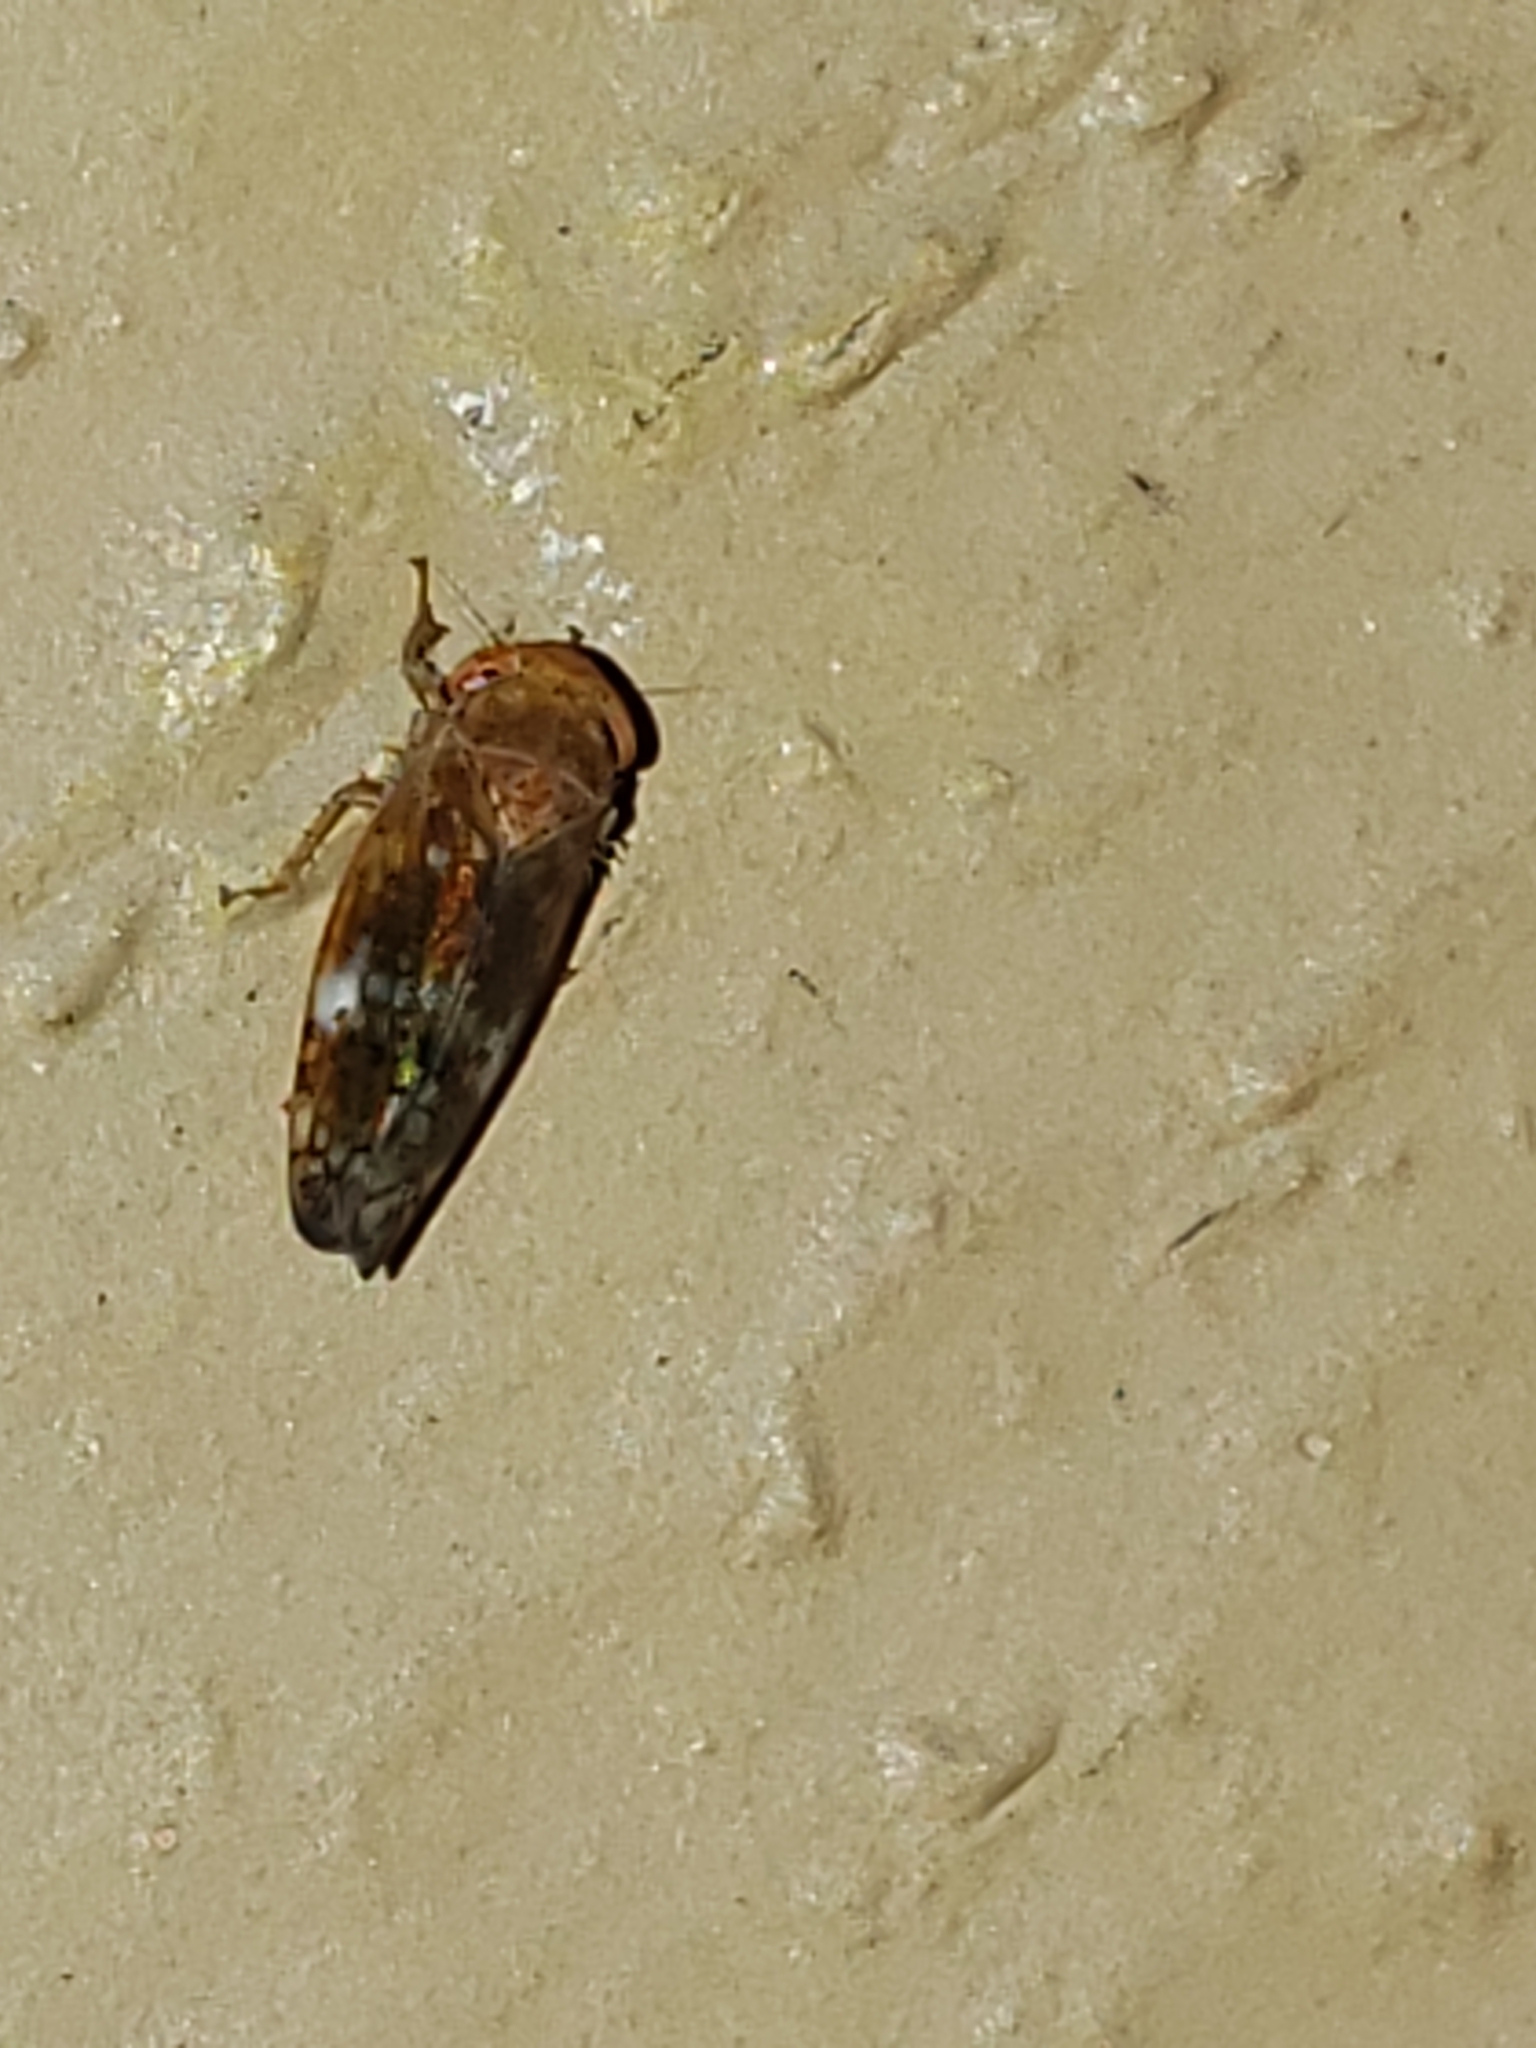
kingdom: Animalia
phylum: Arthropoda
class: Insecta
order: Hemiptera
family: Cicadellidae
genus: Aligia
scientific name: Aligia meridiana
